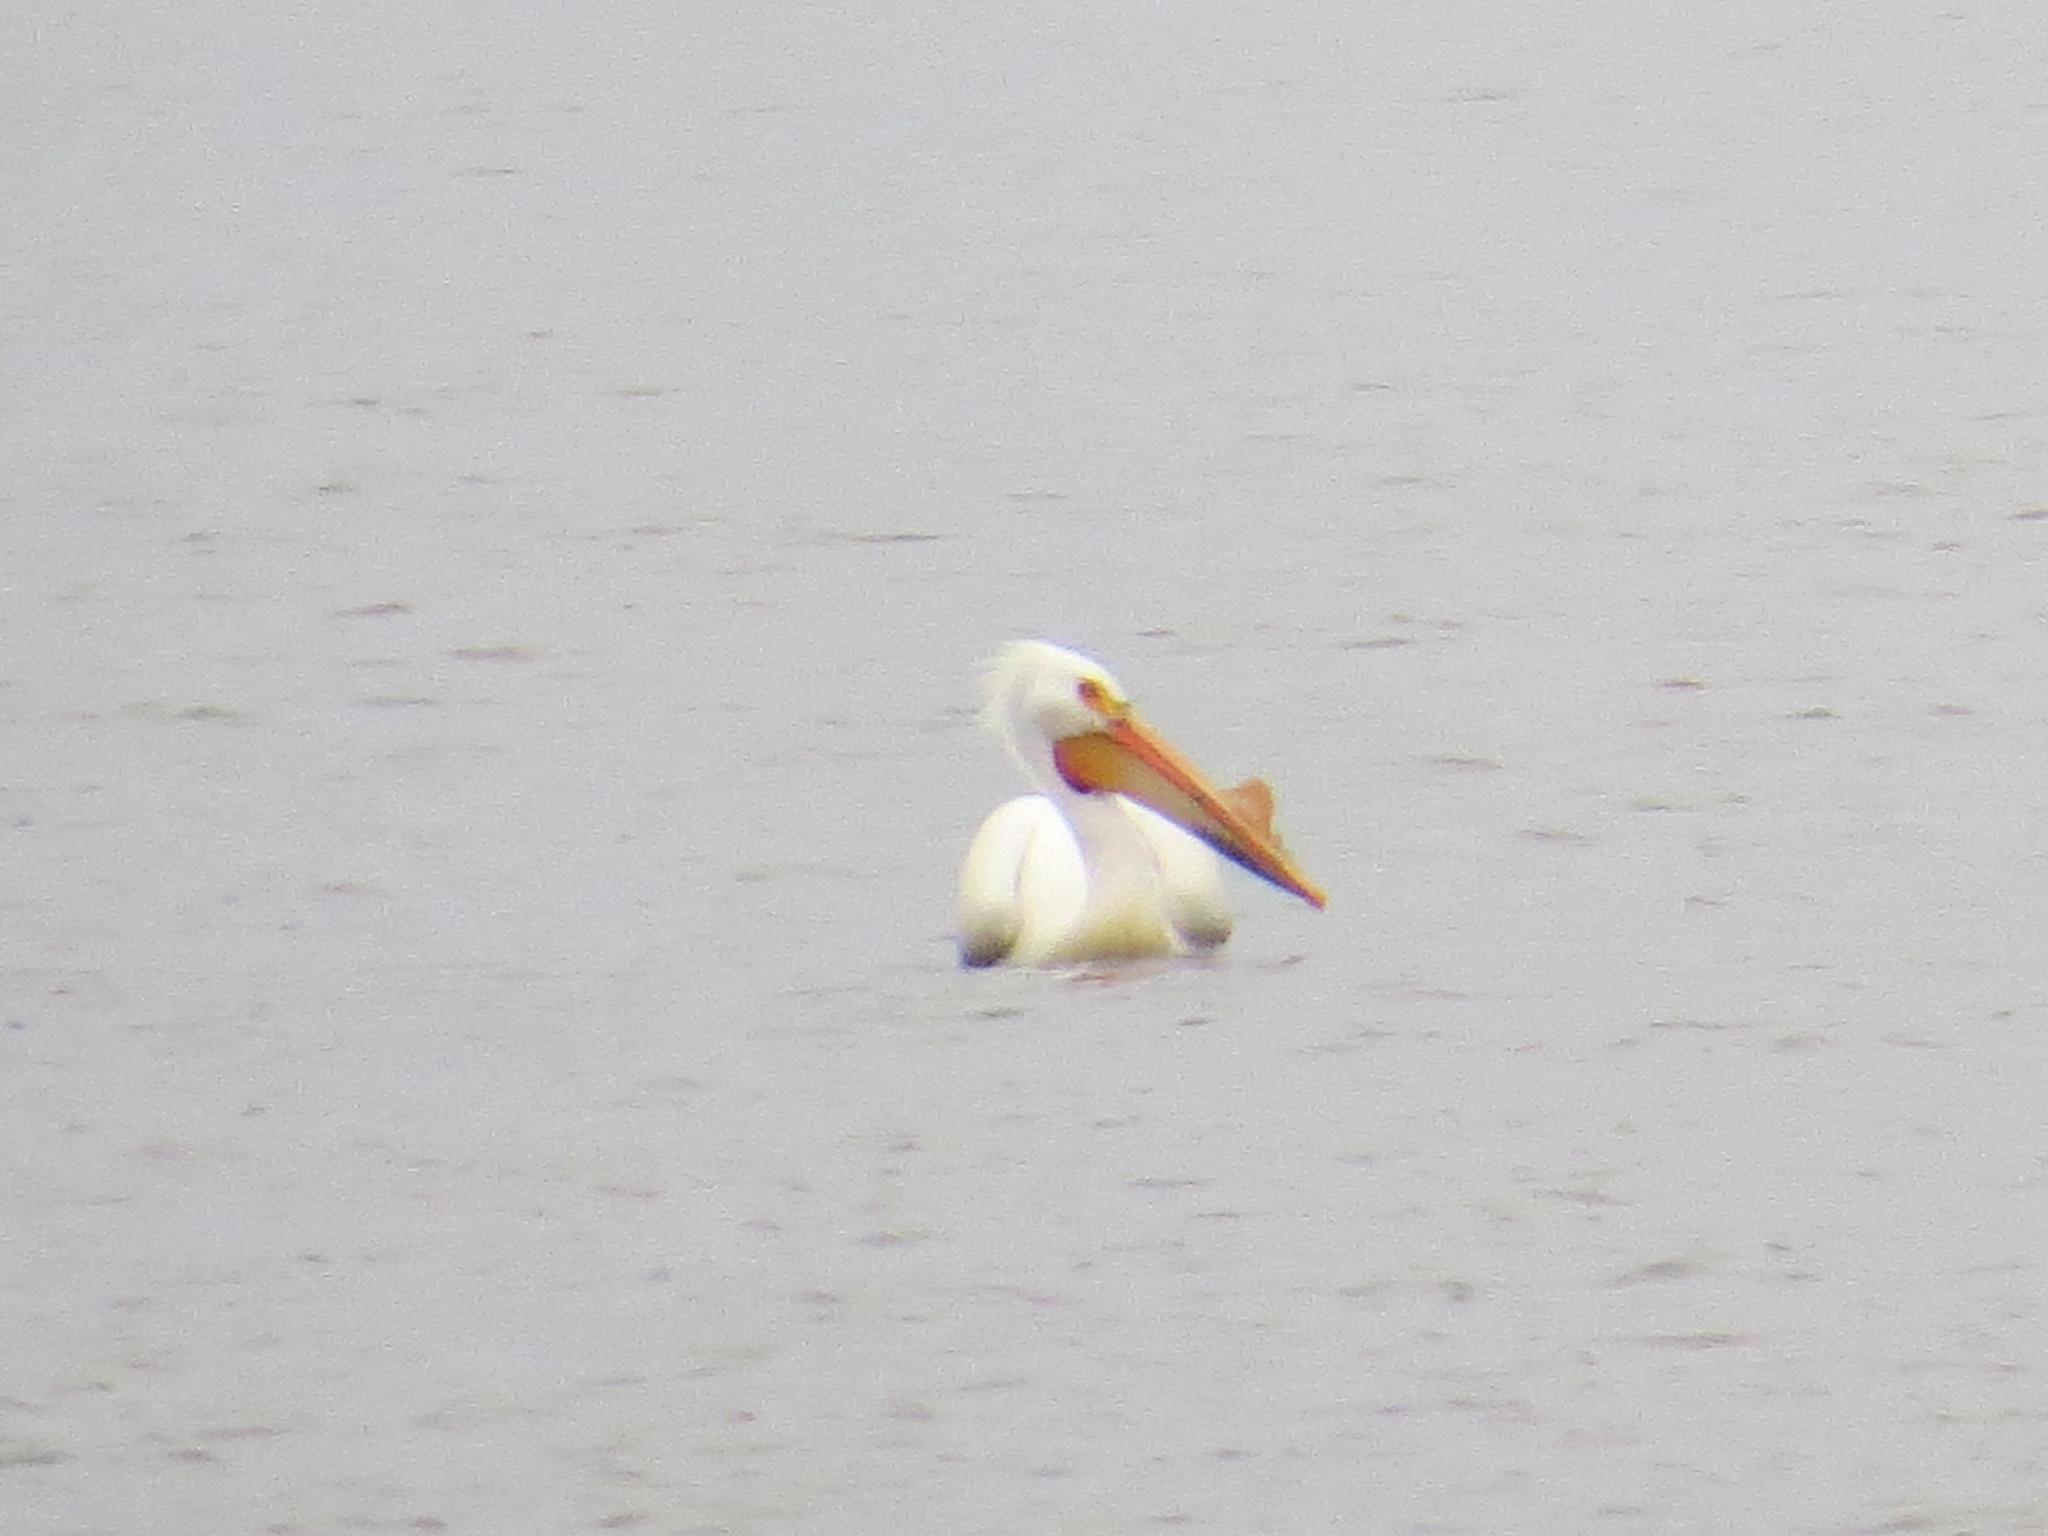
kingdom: Animalia
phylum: Chordata
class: Aves
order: Pelecaniformes
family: Pelecanidae
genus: Pelecanus
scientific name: Pelecanus erythrorhynchos
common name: American white pelican
